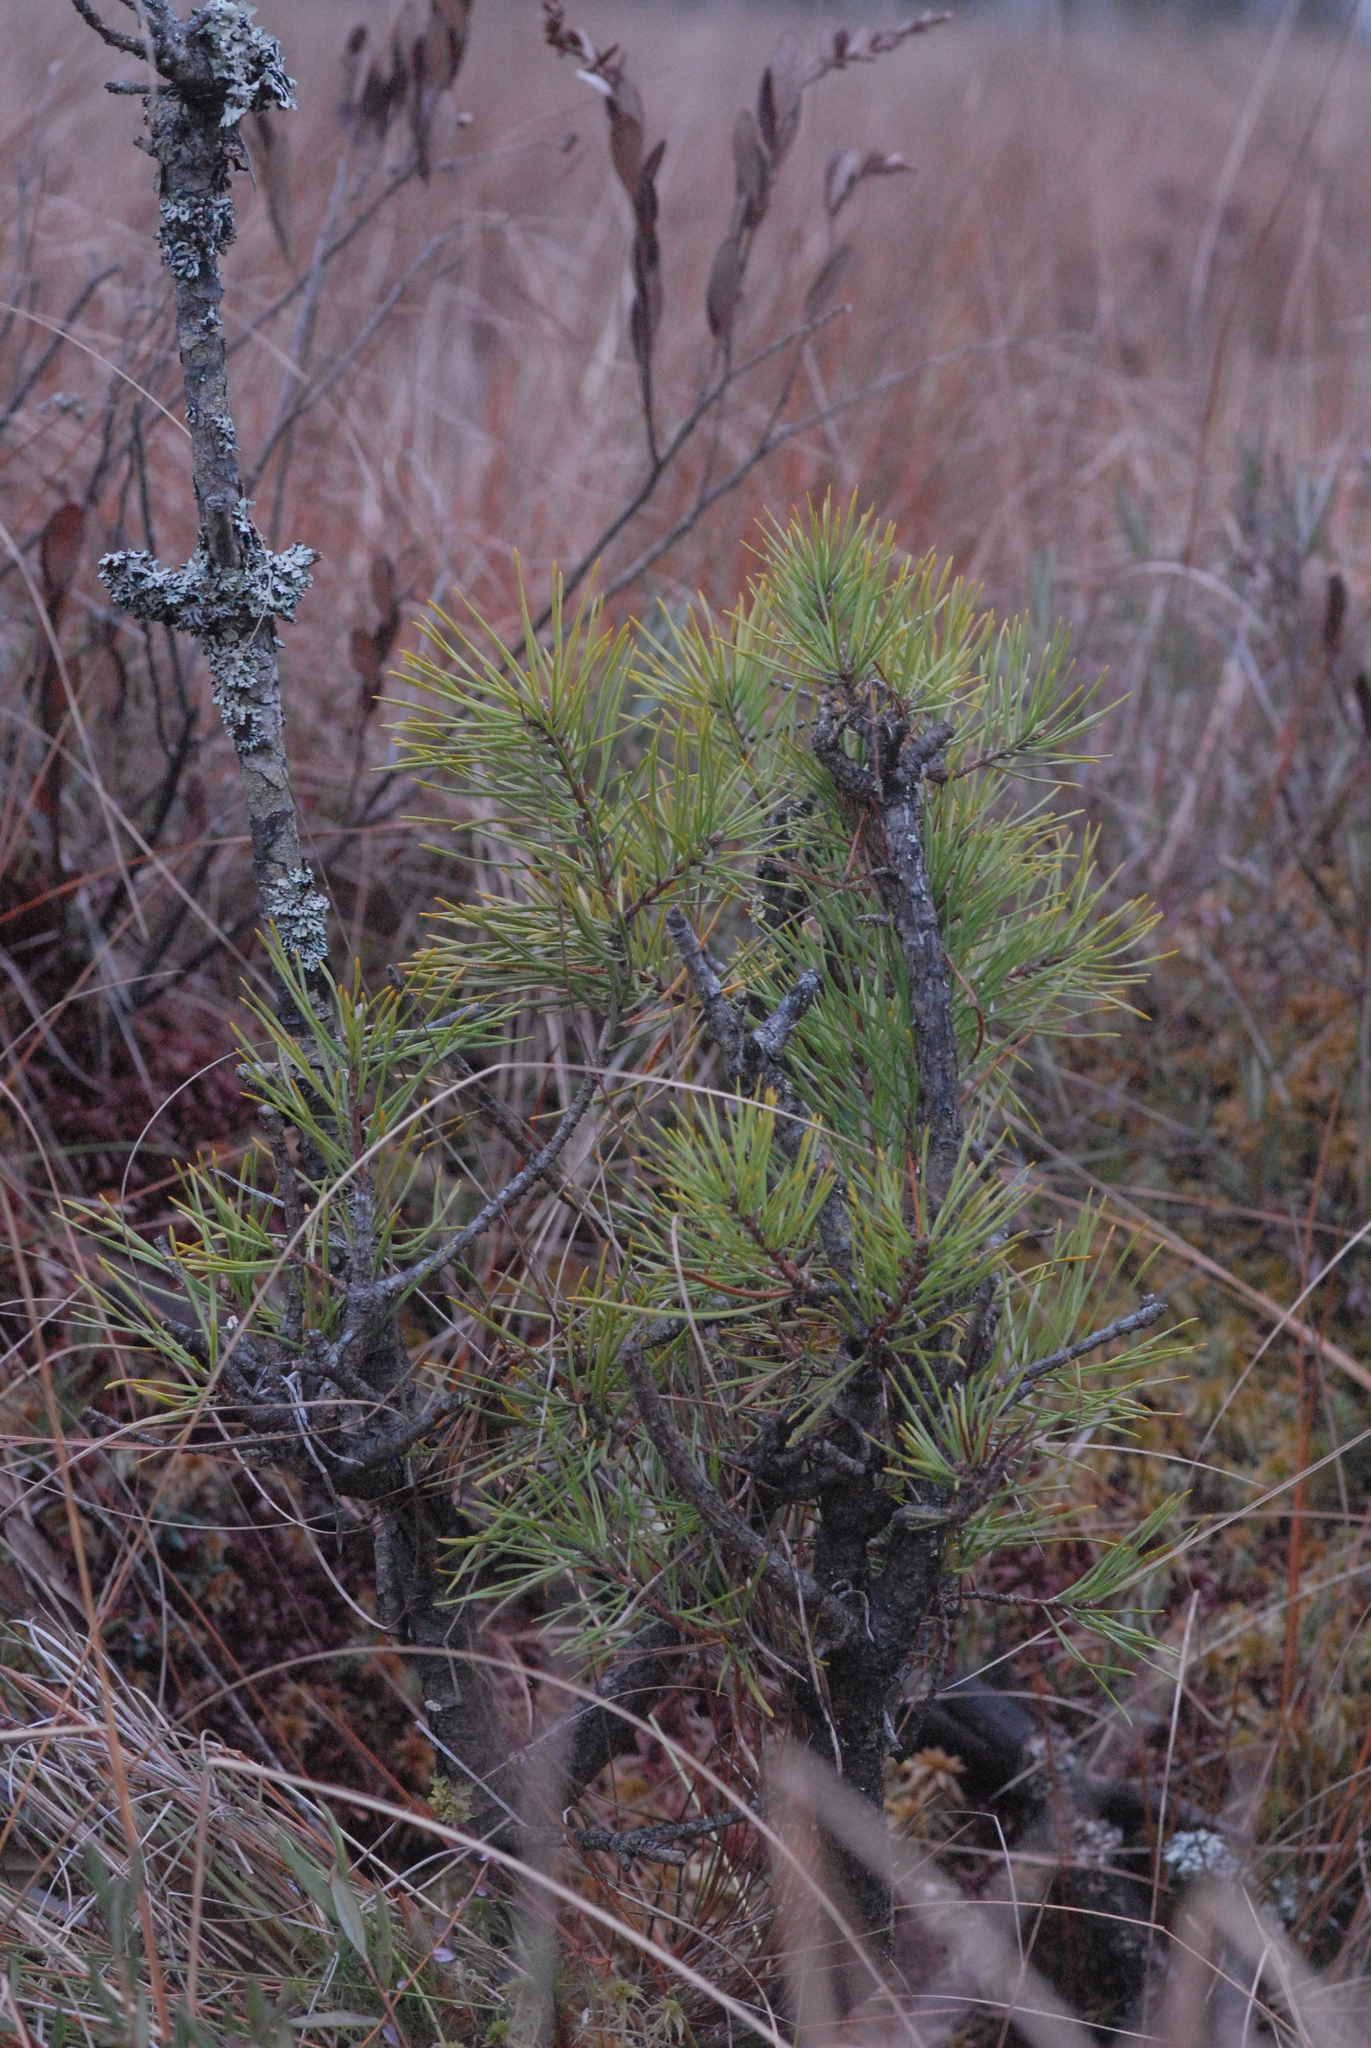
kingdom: Plantae
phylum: Tracheophyta
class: Pinopsida
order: Pinales
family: Pinaceae
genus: Pinus
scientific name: Pinus sylvestris
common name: Scots pine
